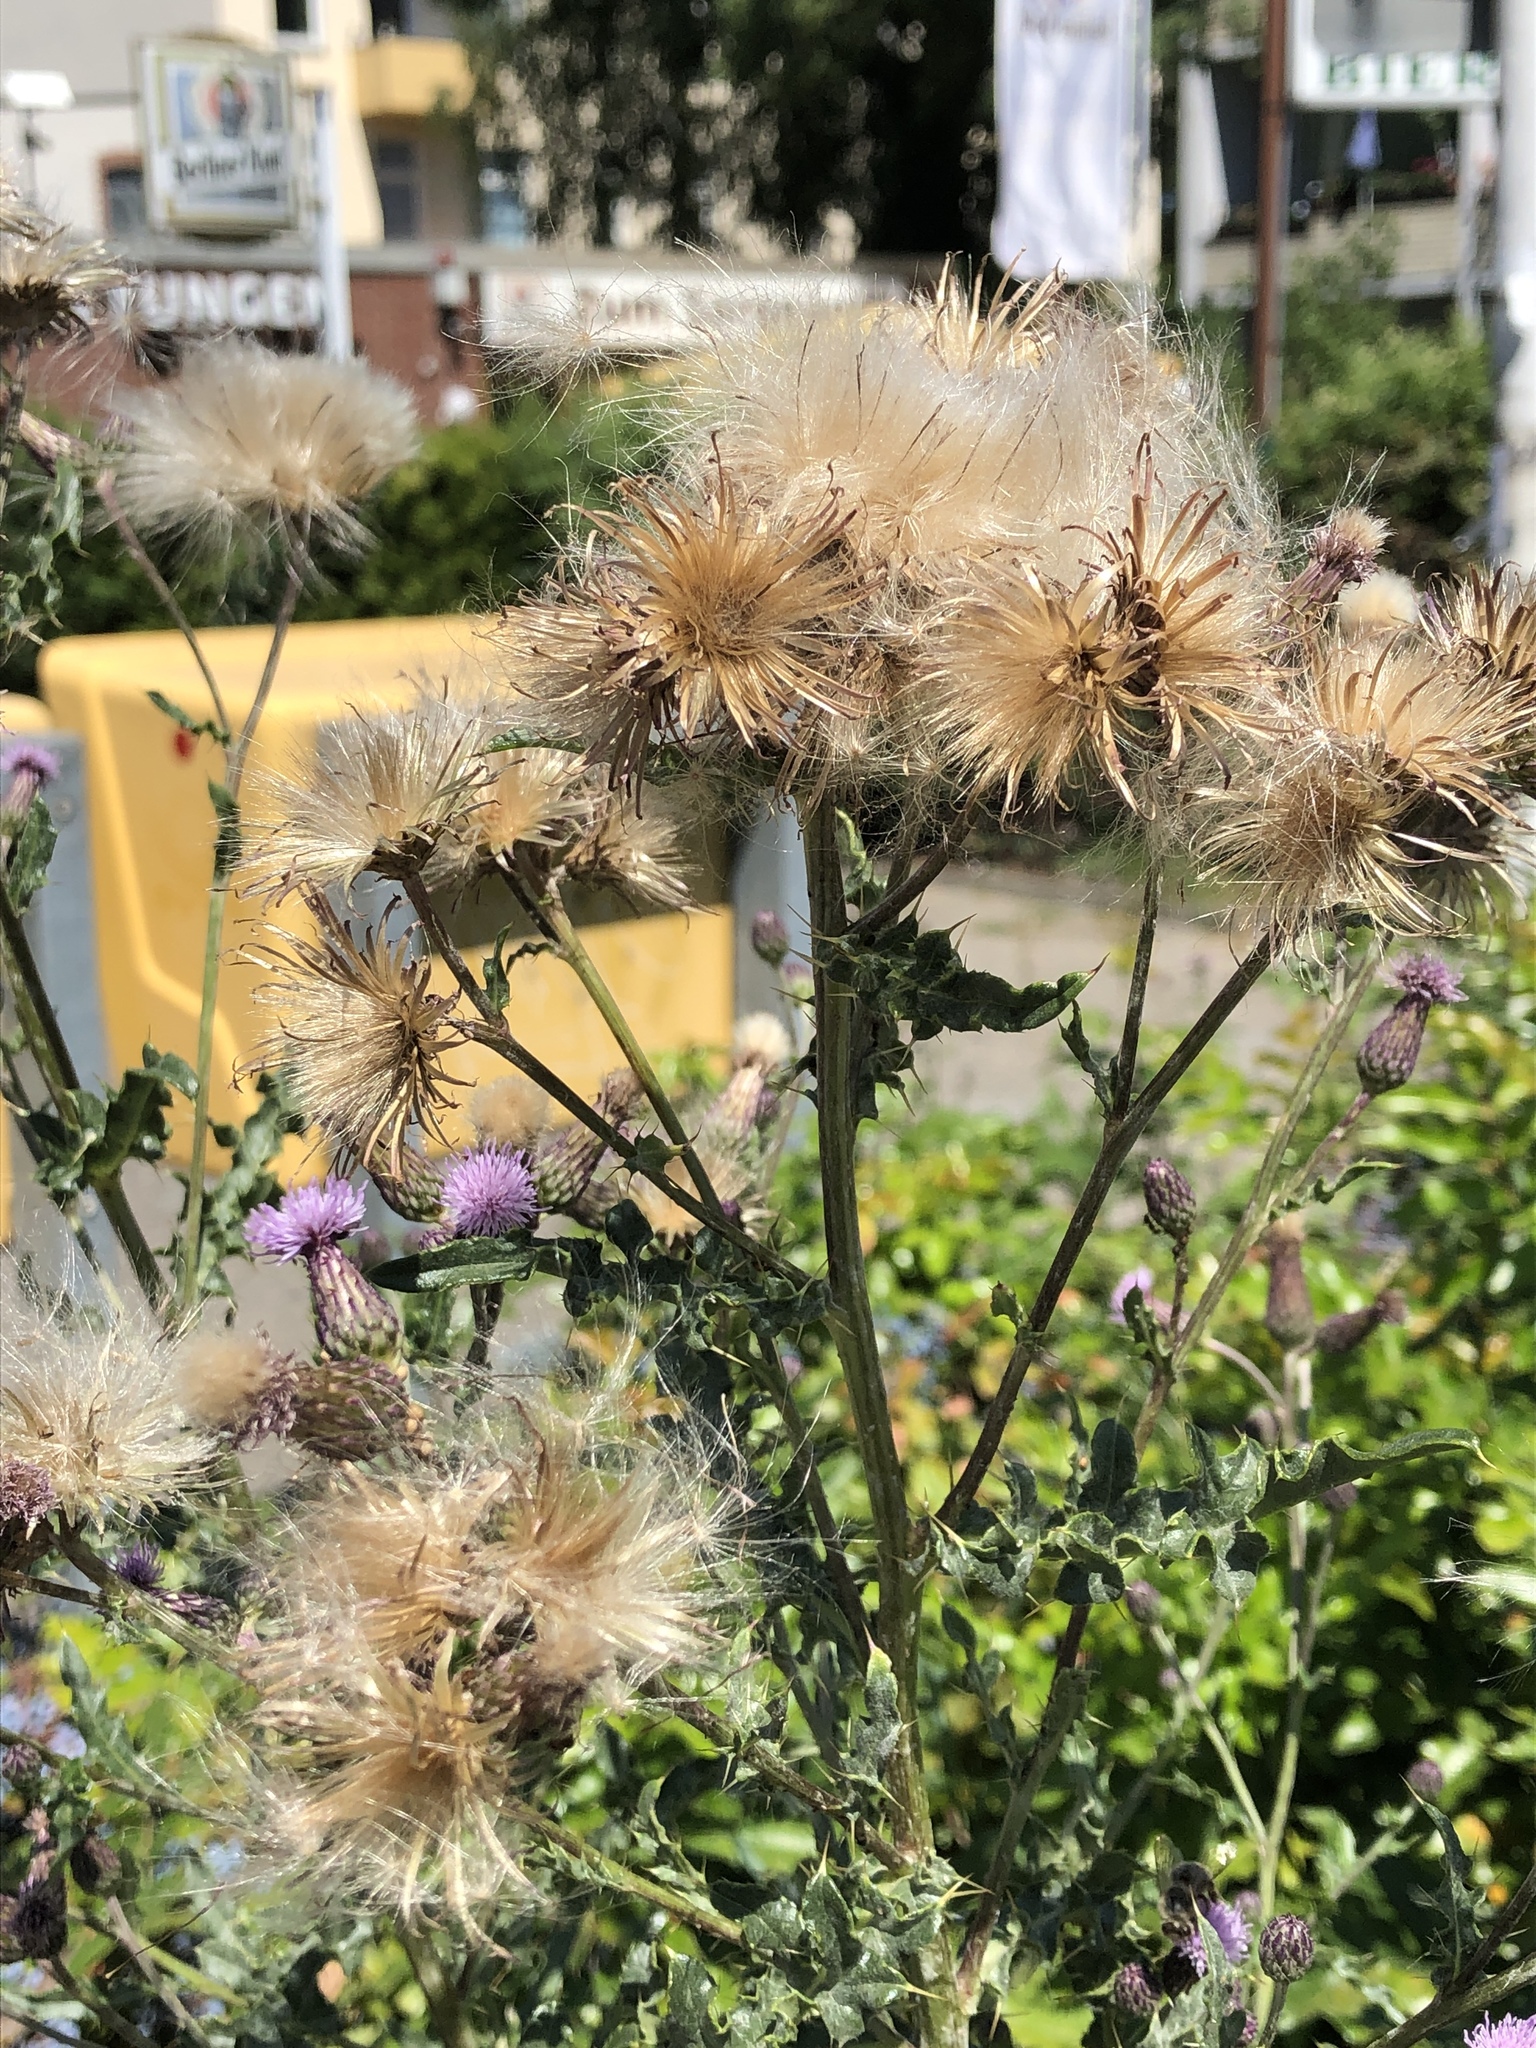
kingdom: Plantae
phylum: Tracheophyta
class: Magnoliopsida
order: Asterales
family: Asteraceae
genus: Cirsium
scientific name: Cirsium arvense
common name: Creeping thistle
